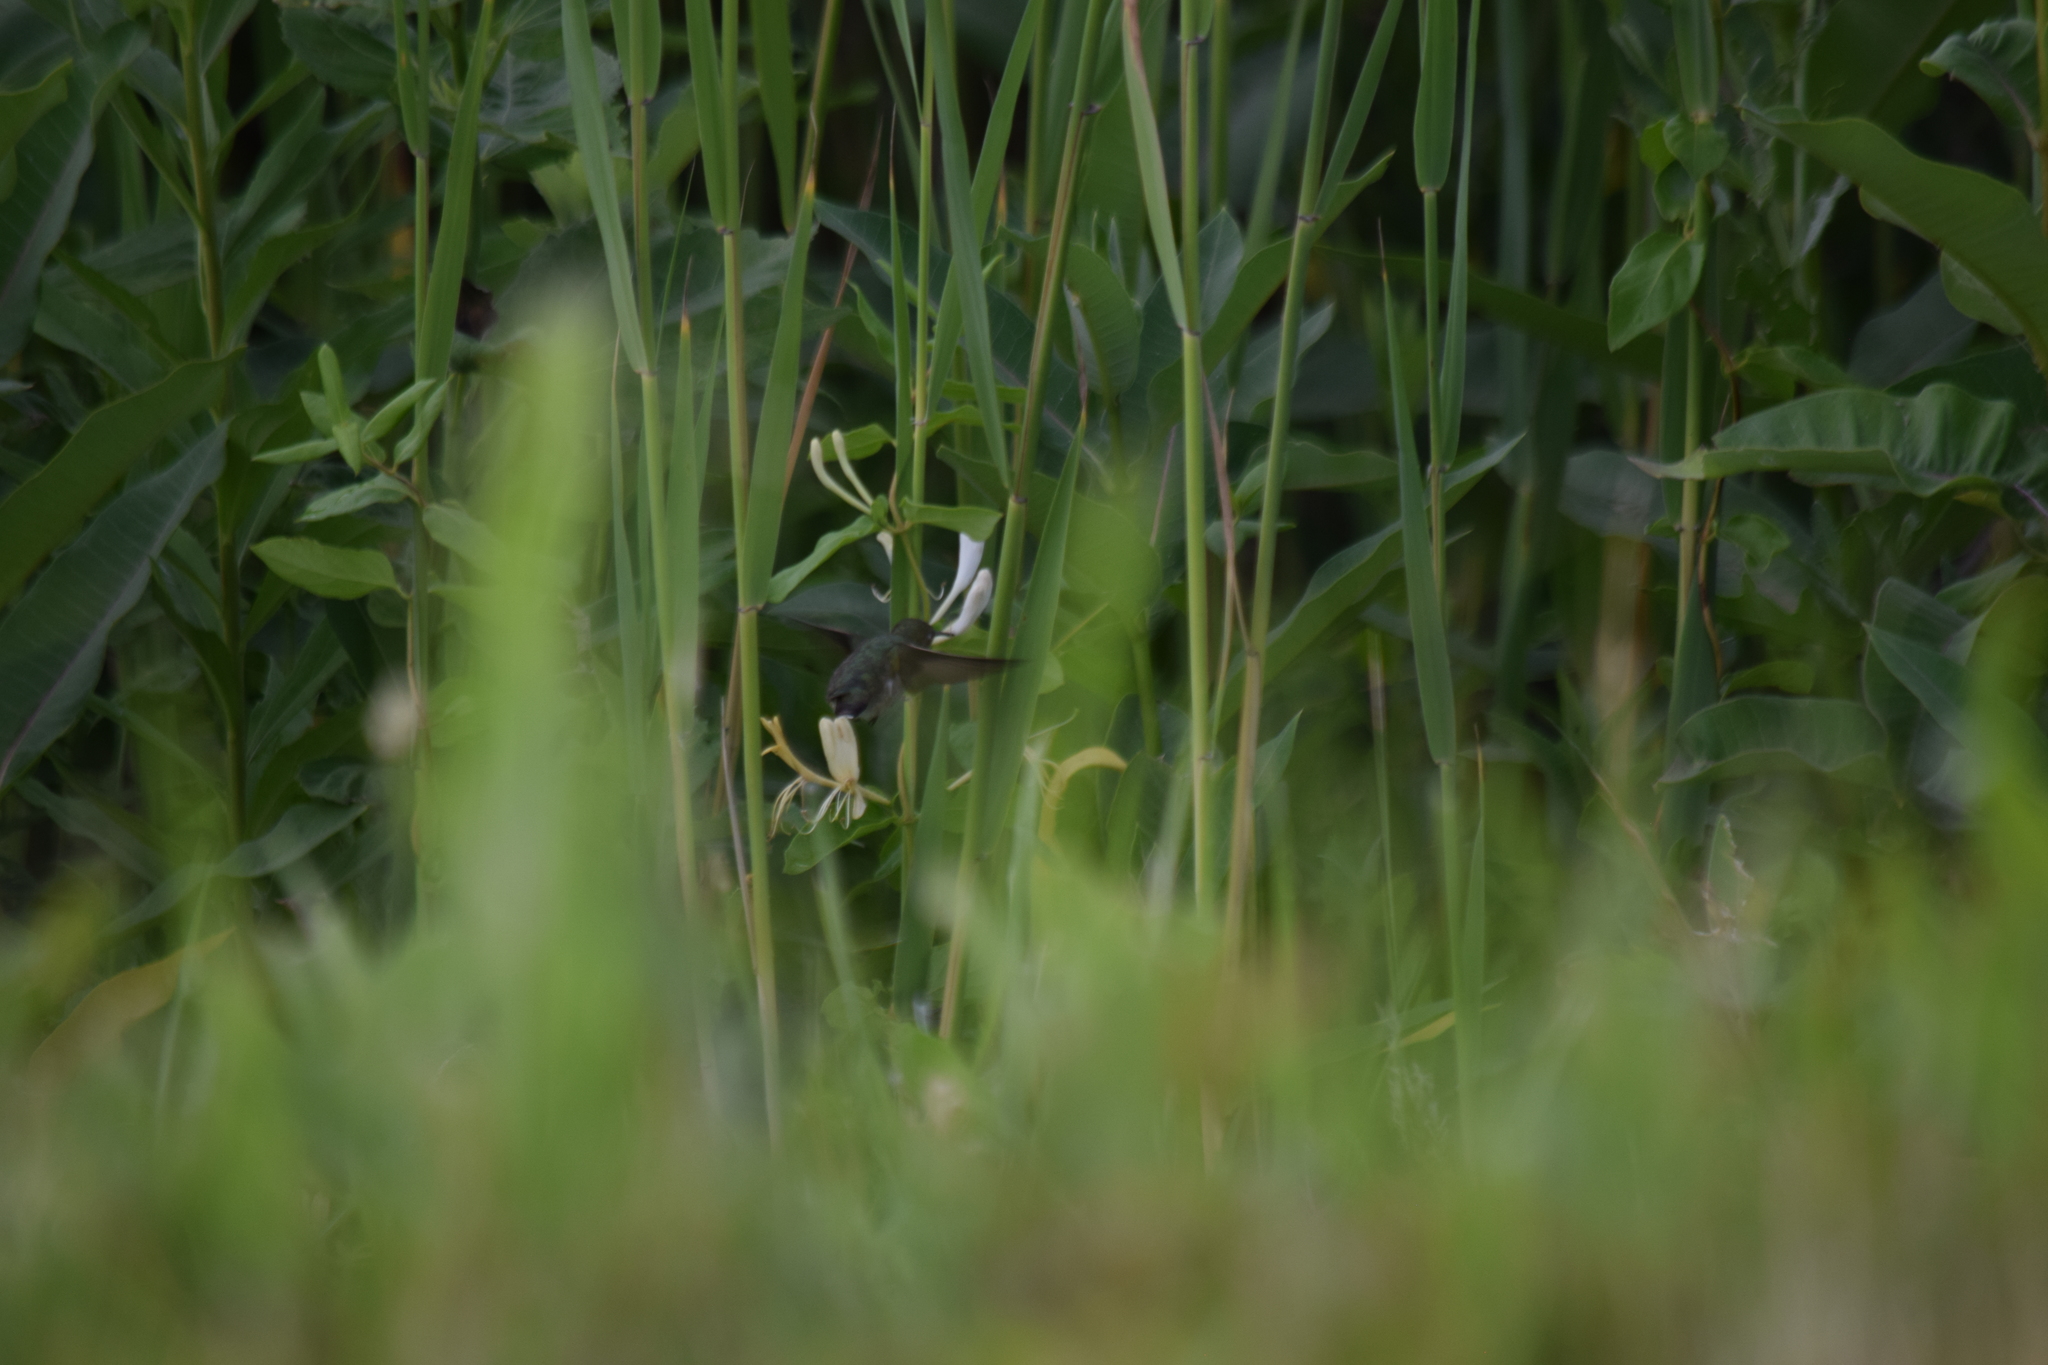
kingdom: Animalia
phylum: Chordata
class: Aves
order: Apodiformes
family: Trochilidae
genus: Archilochus
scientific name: Archilochus colubris
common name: Ruby-throated hummingbird
